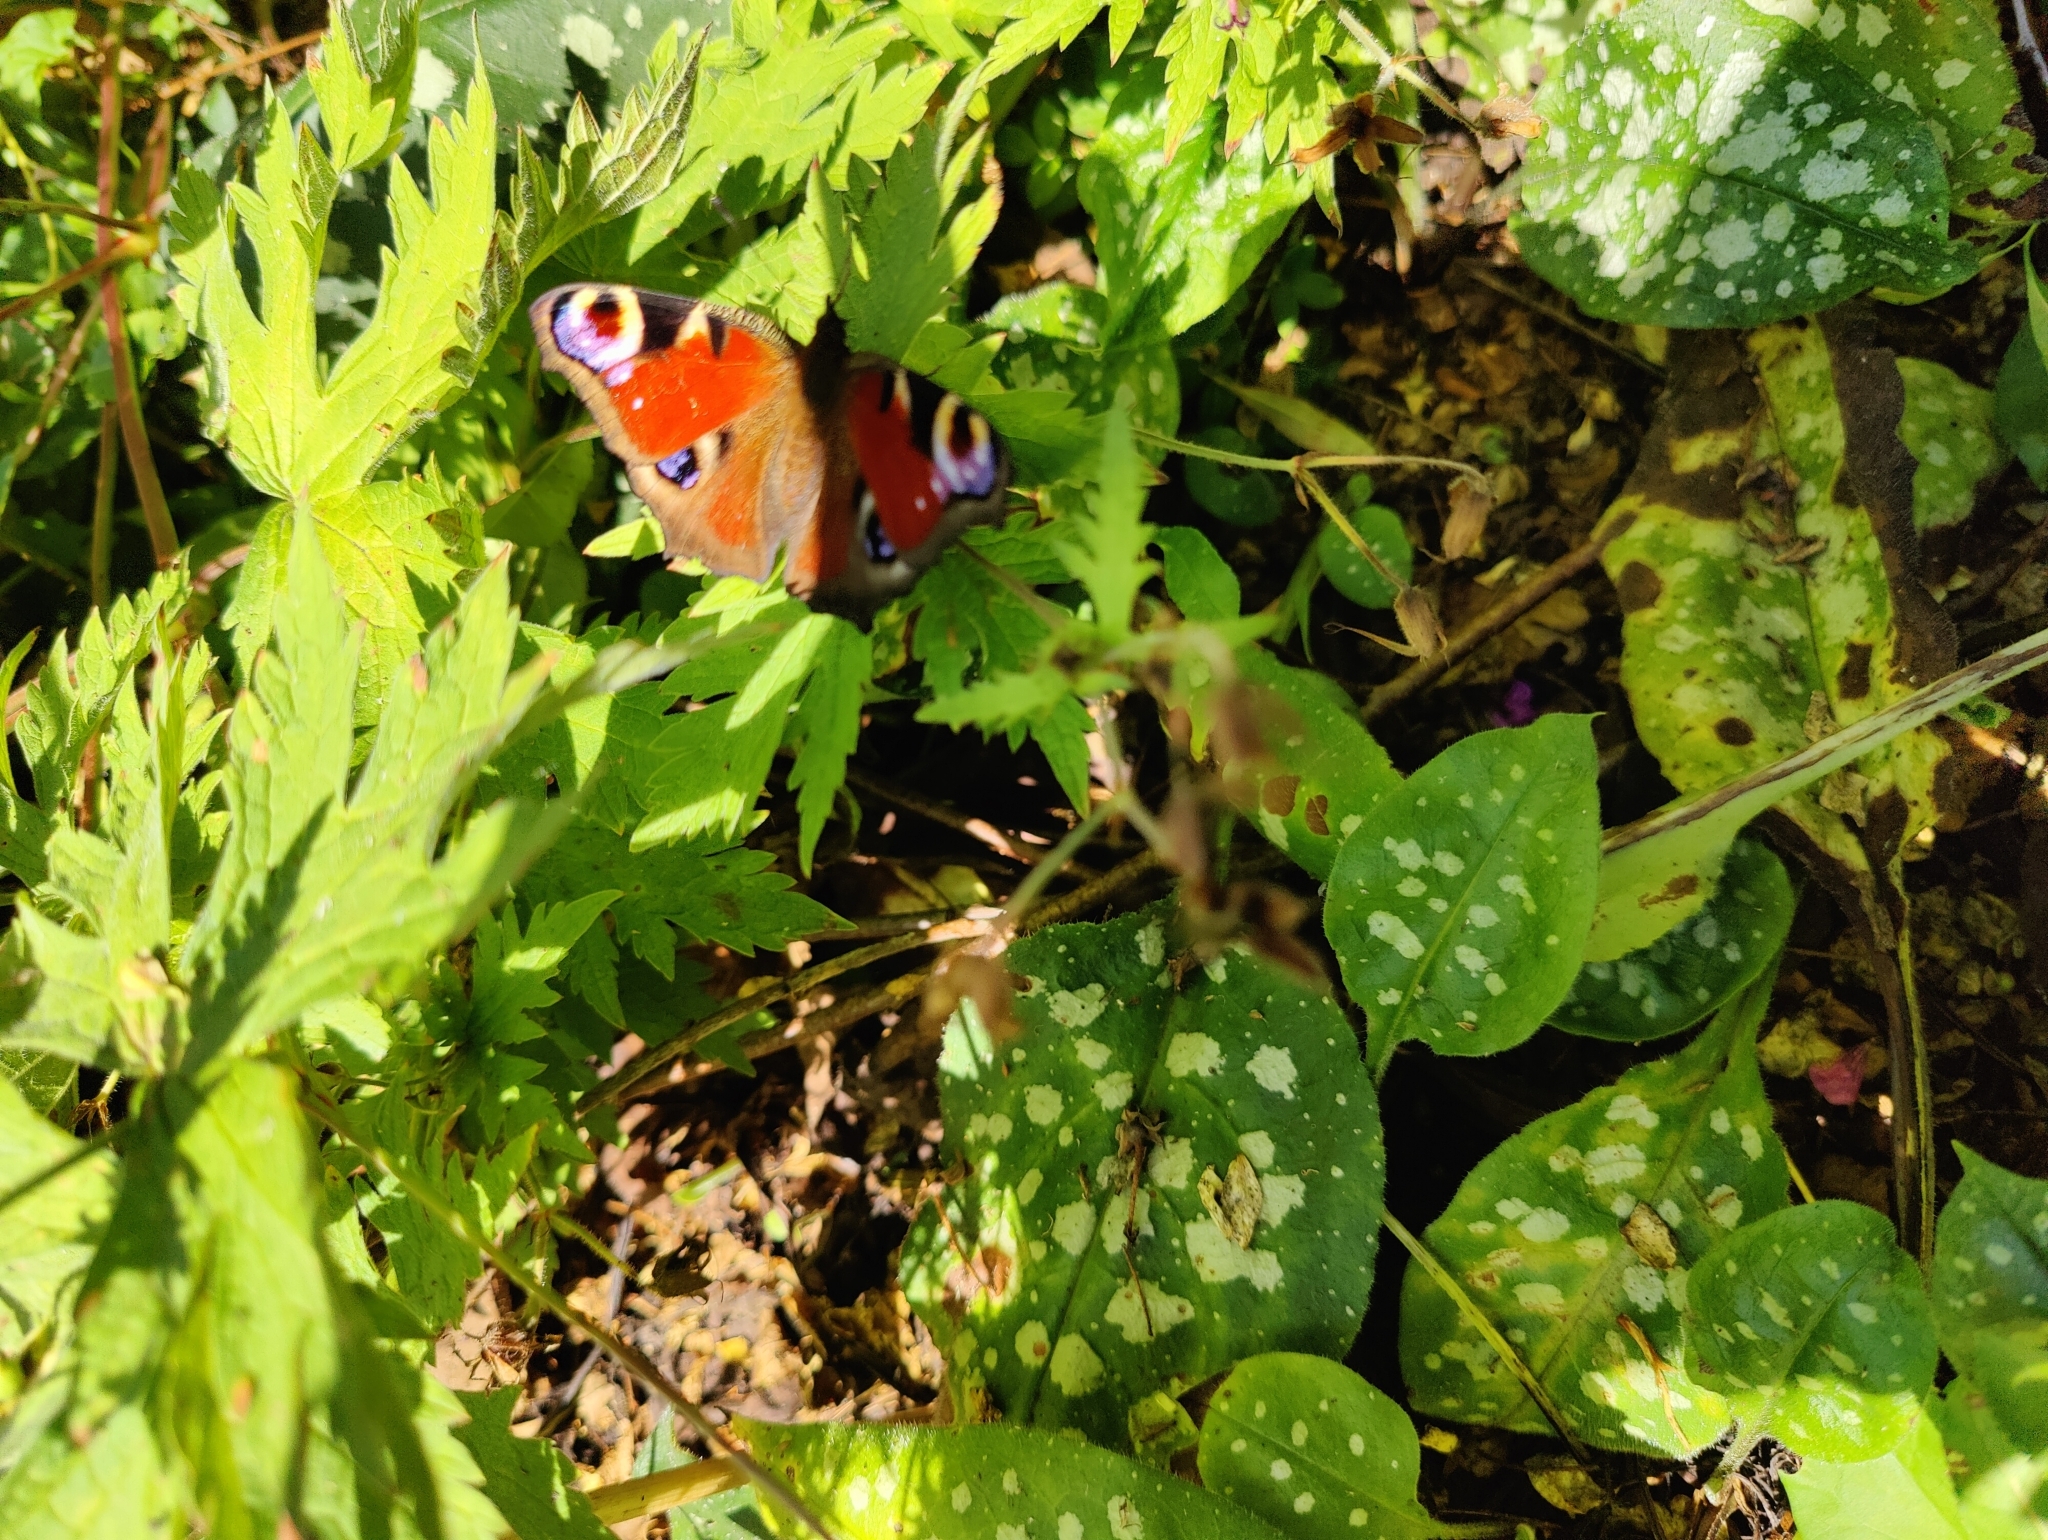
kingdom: Animalia
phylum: Arthropoda
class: Insecta
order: Lepidoptera
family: Nymphalidae
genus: Aglais
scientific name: Aglais io
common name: Peacock
